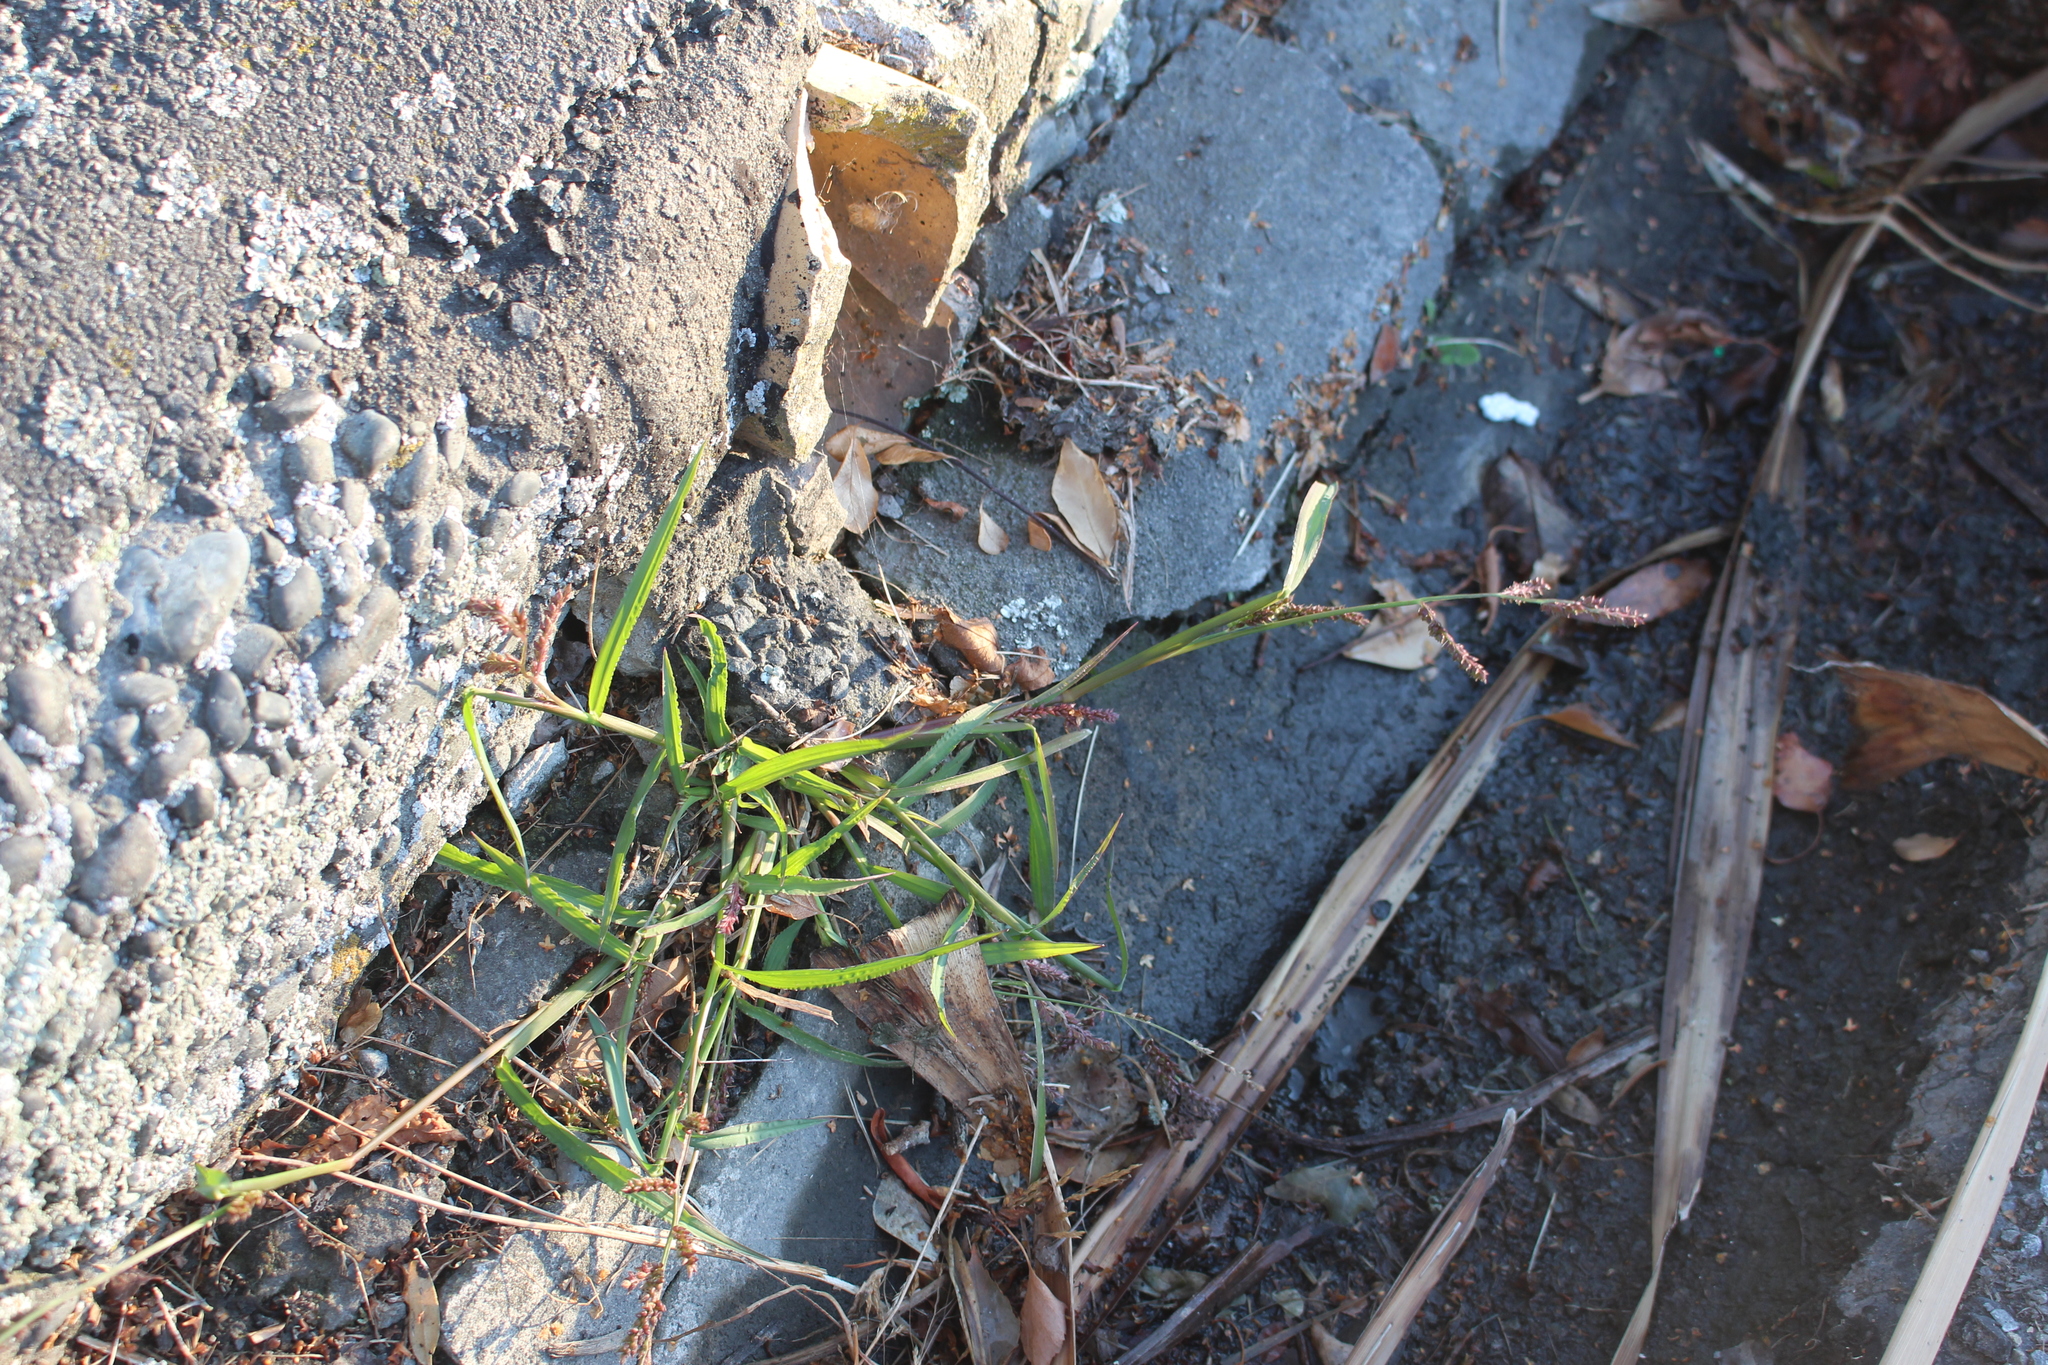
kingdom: Plantae
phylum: Tracheophyta
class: Liliopsida
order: Poales
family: Poaceae
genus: Echinochloa
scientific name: Echinochloa crus-galli
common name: Cockspur
